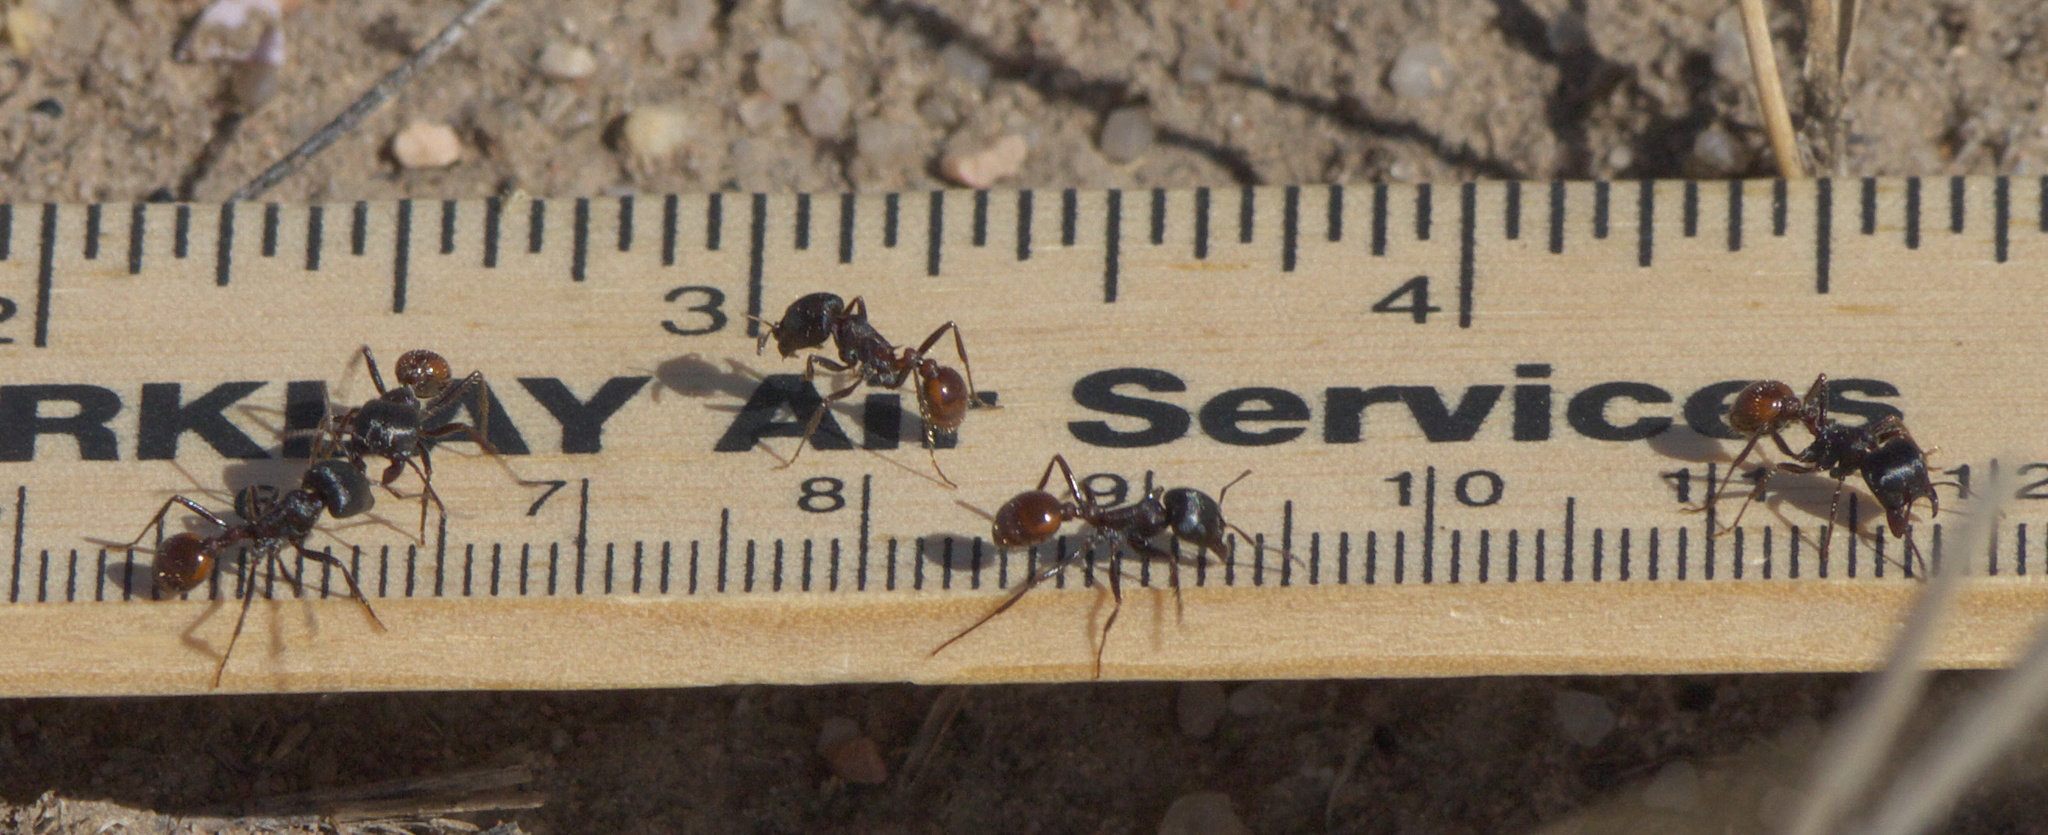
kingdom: Animalia
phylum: Arthropoda
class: Insecta
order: Hymenoptera
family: Formicidae
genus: Pogonomyrmex
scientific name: Pogonomyrmex rugosus
